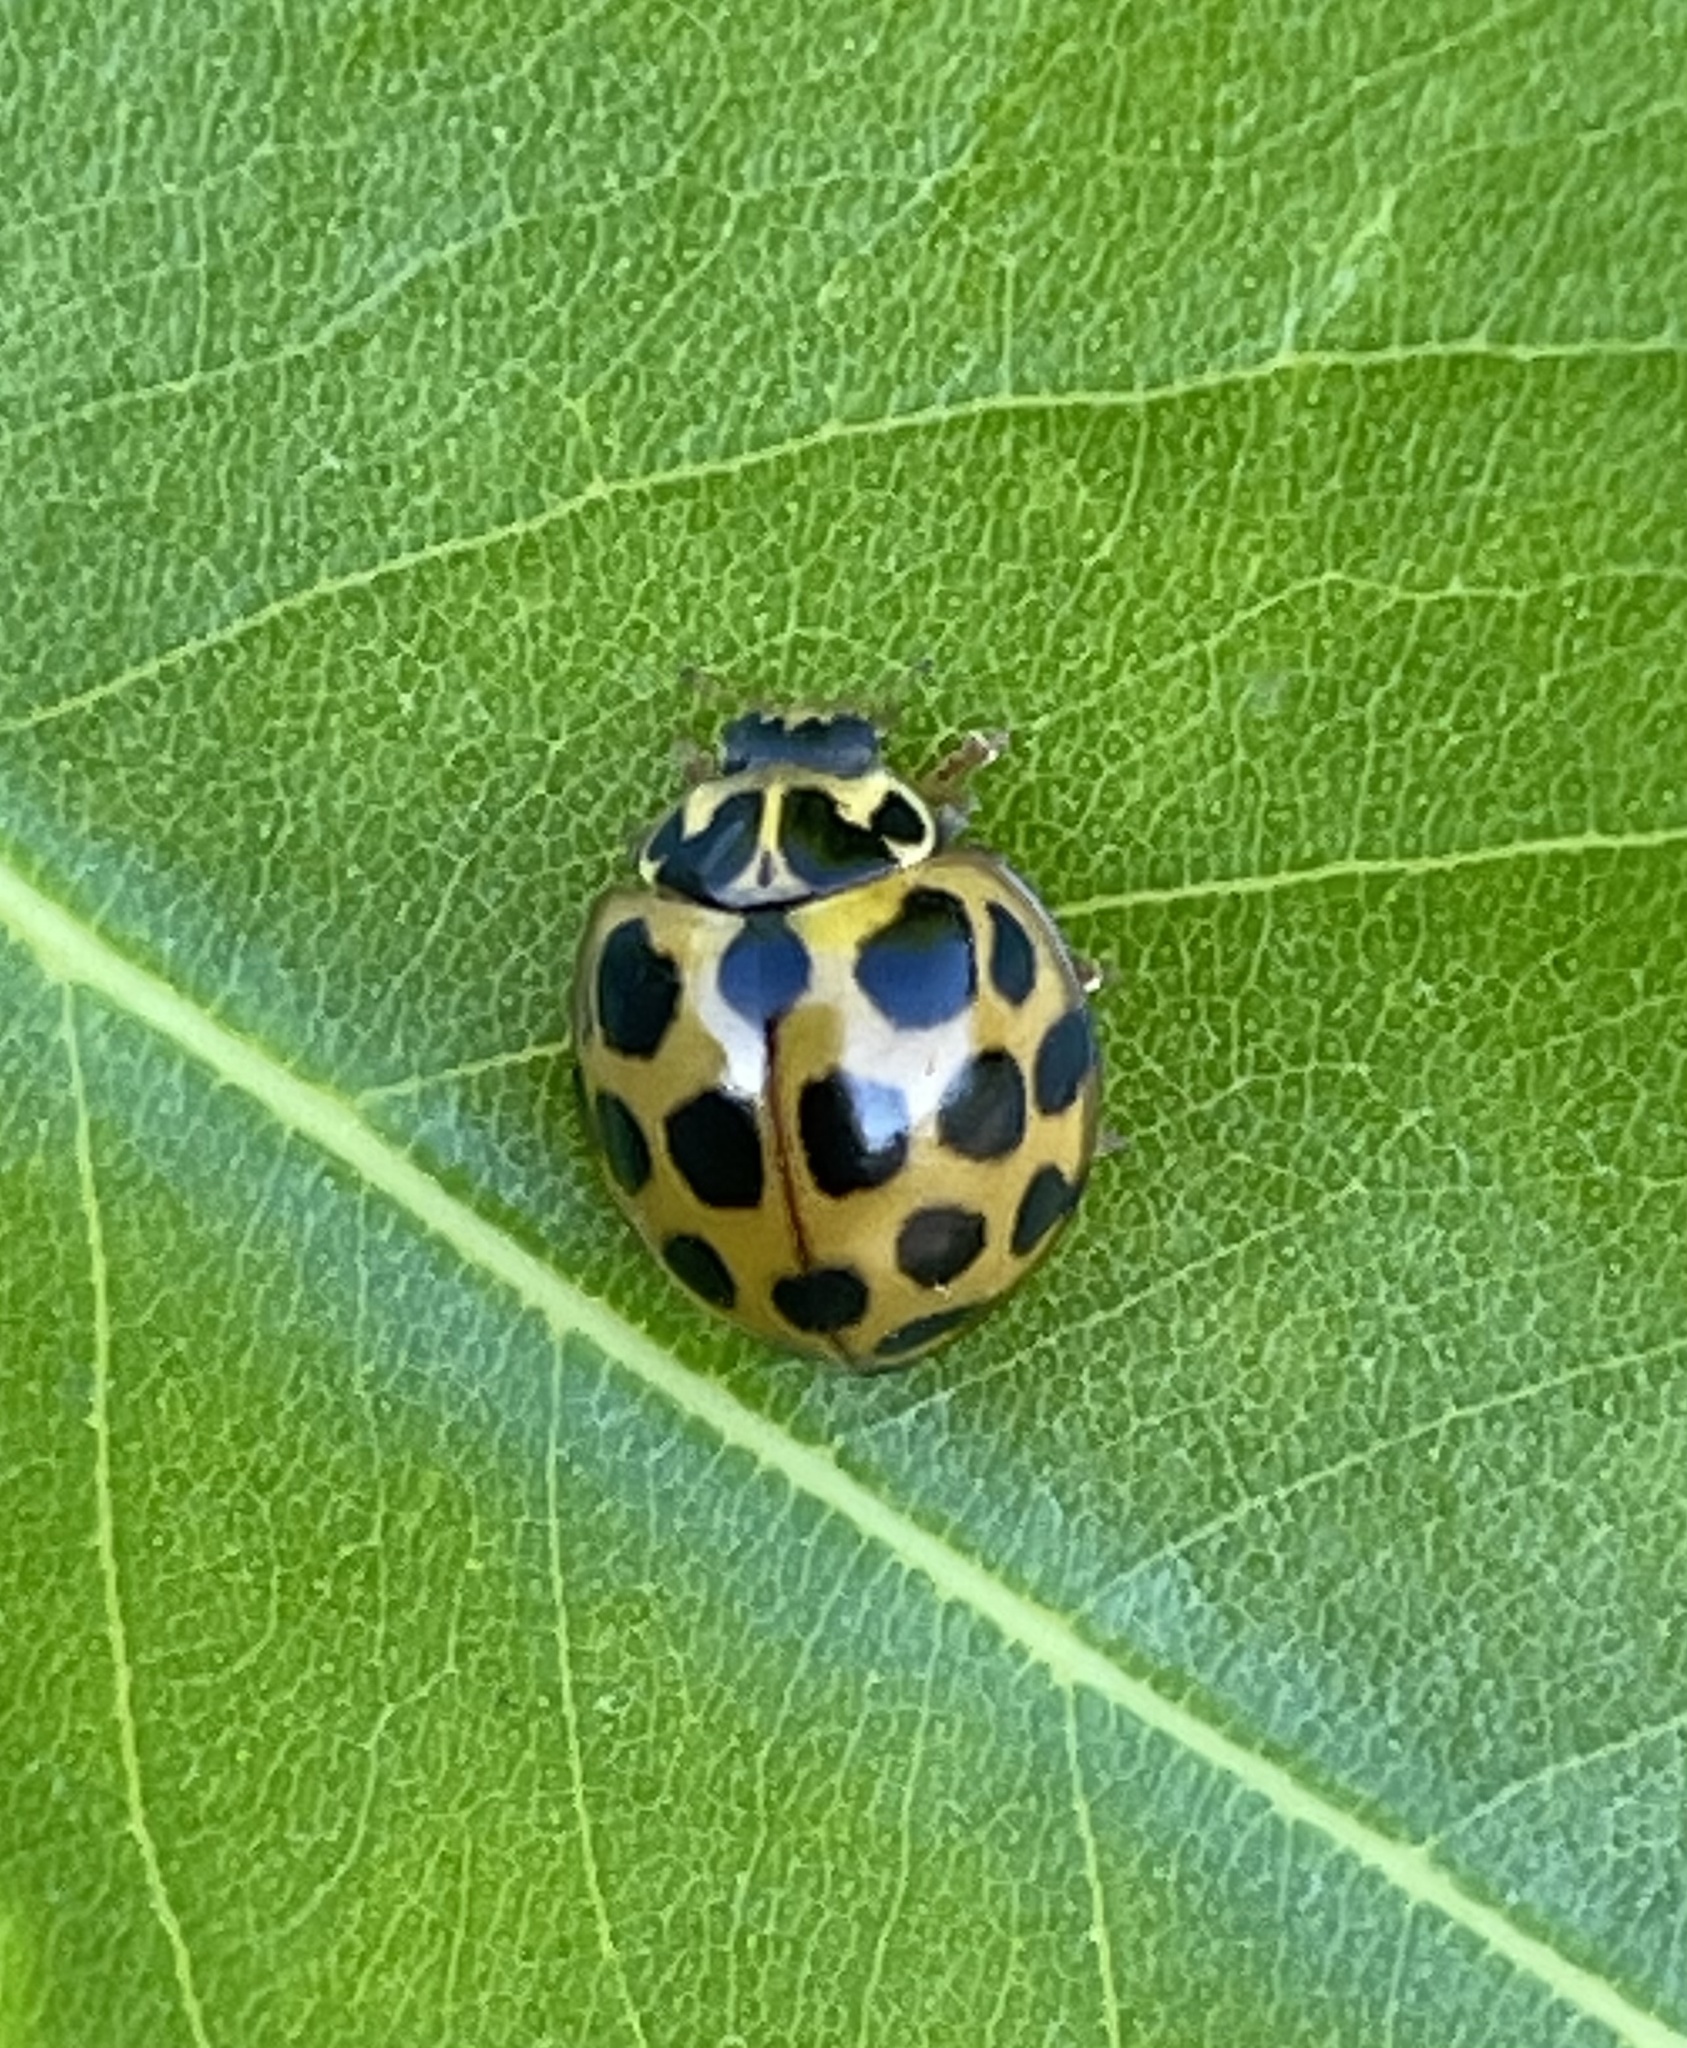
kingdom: Animalia
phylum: Arthropoda
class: Insecta
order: Coleoptera
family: Coccinellidae
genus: Harmonia
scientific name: Harmonia conformis
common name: Common spotted ladybird beetle
